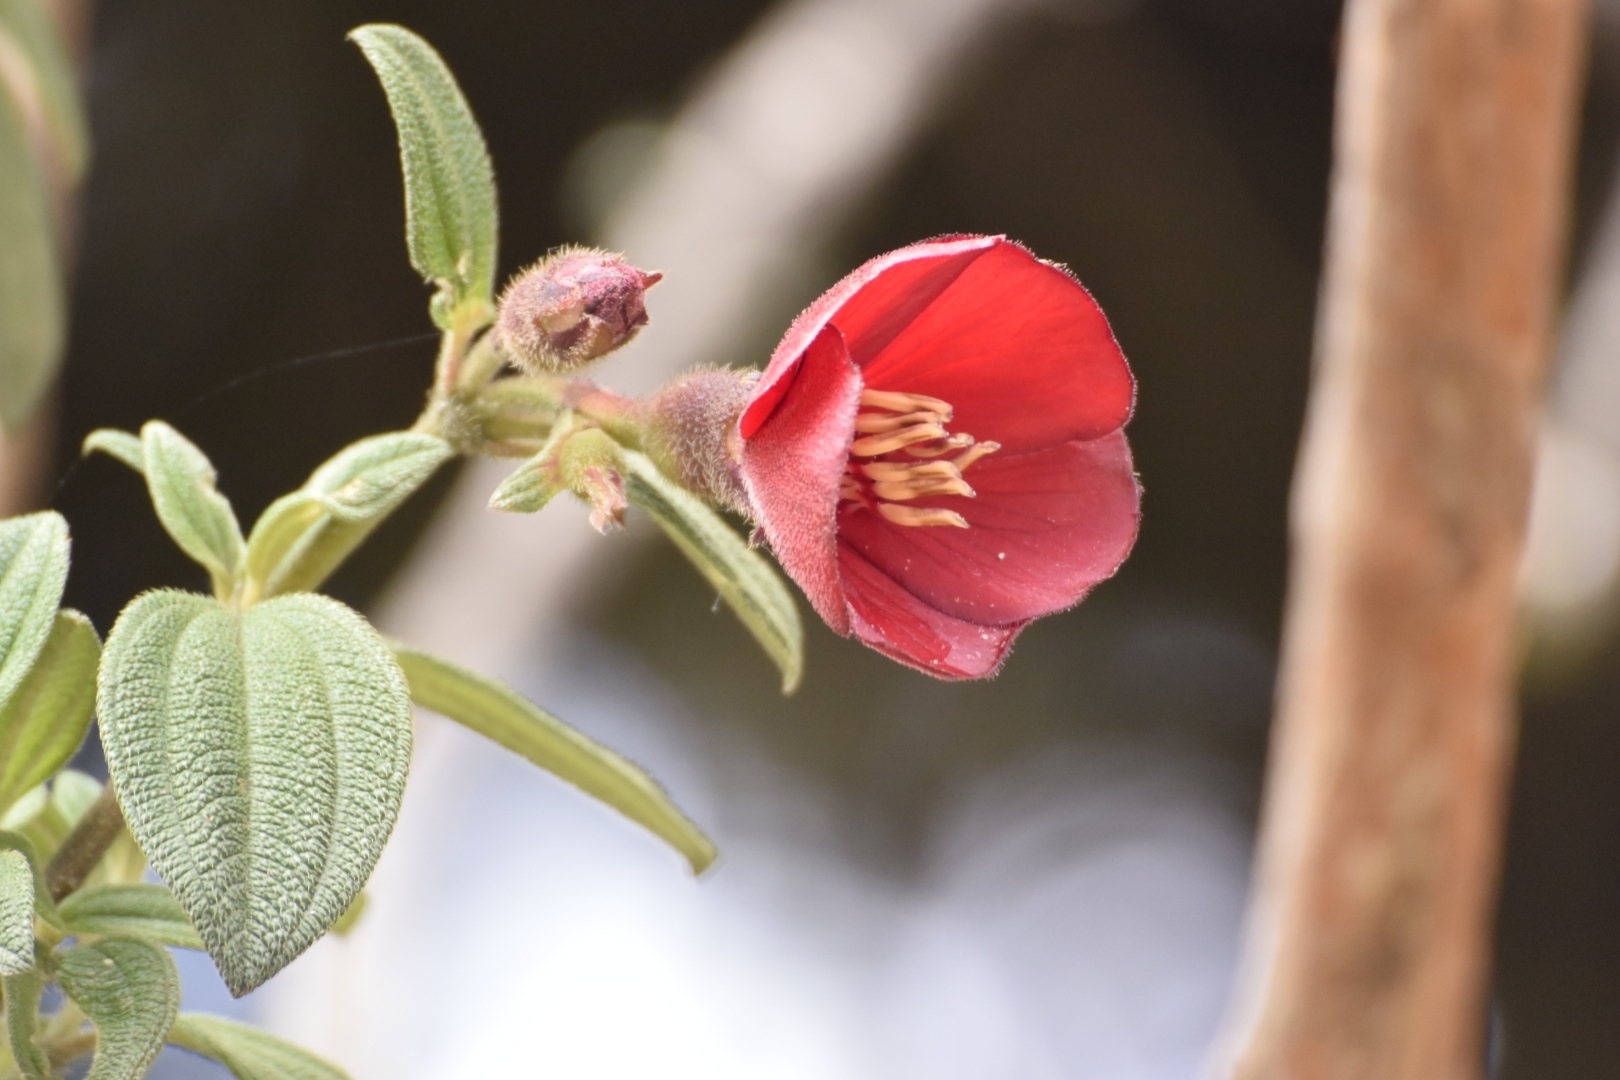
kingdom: Plantae
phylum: Tracheophyta
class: Magnoliopsida
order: Myrtales
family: Melastomataceae
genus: Chaetogastra
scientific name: Chaetogastra grossa
